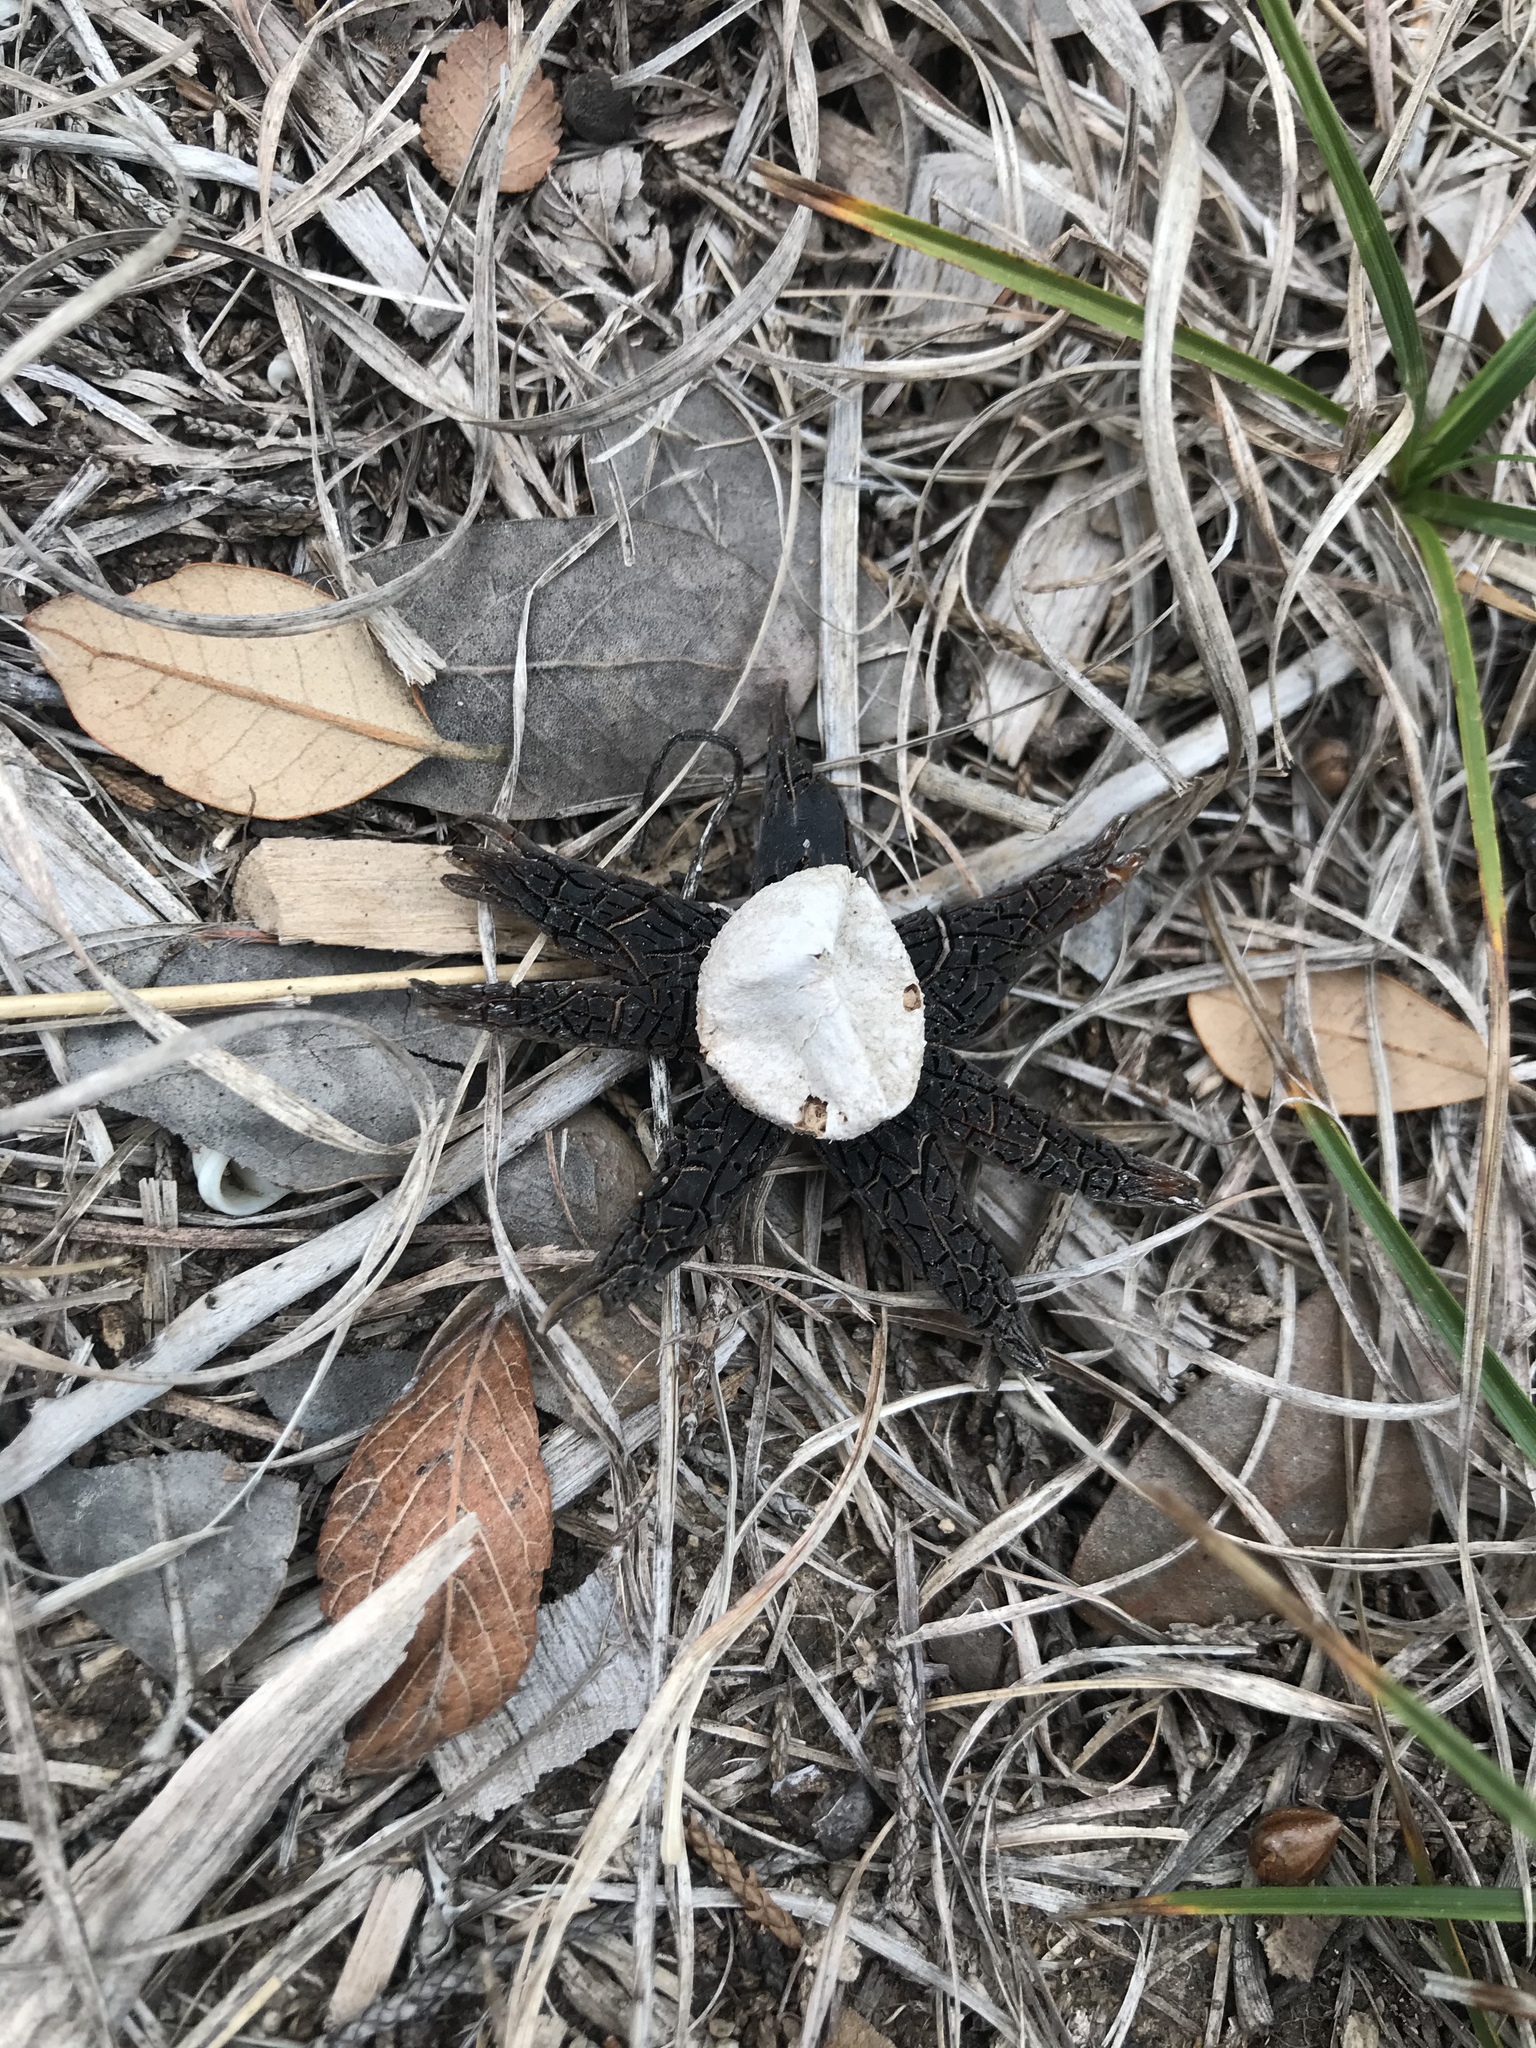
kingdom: Fungi
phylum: Basidiomycota
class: Agaricomycetes
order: Boletales
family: Diplocystidiaceae
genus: Astraeus
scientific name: Astraeus morganii
